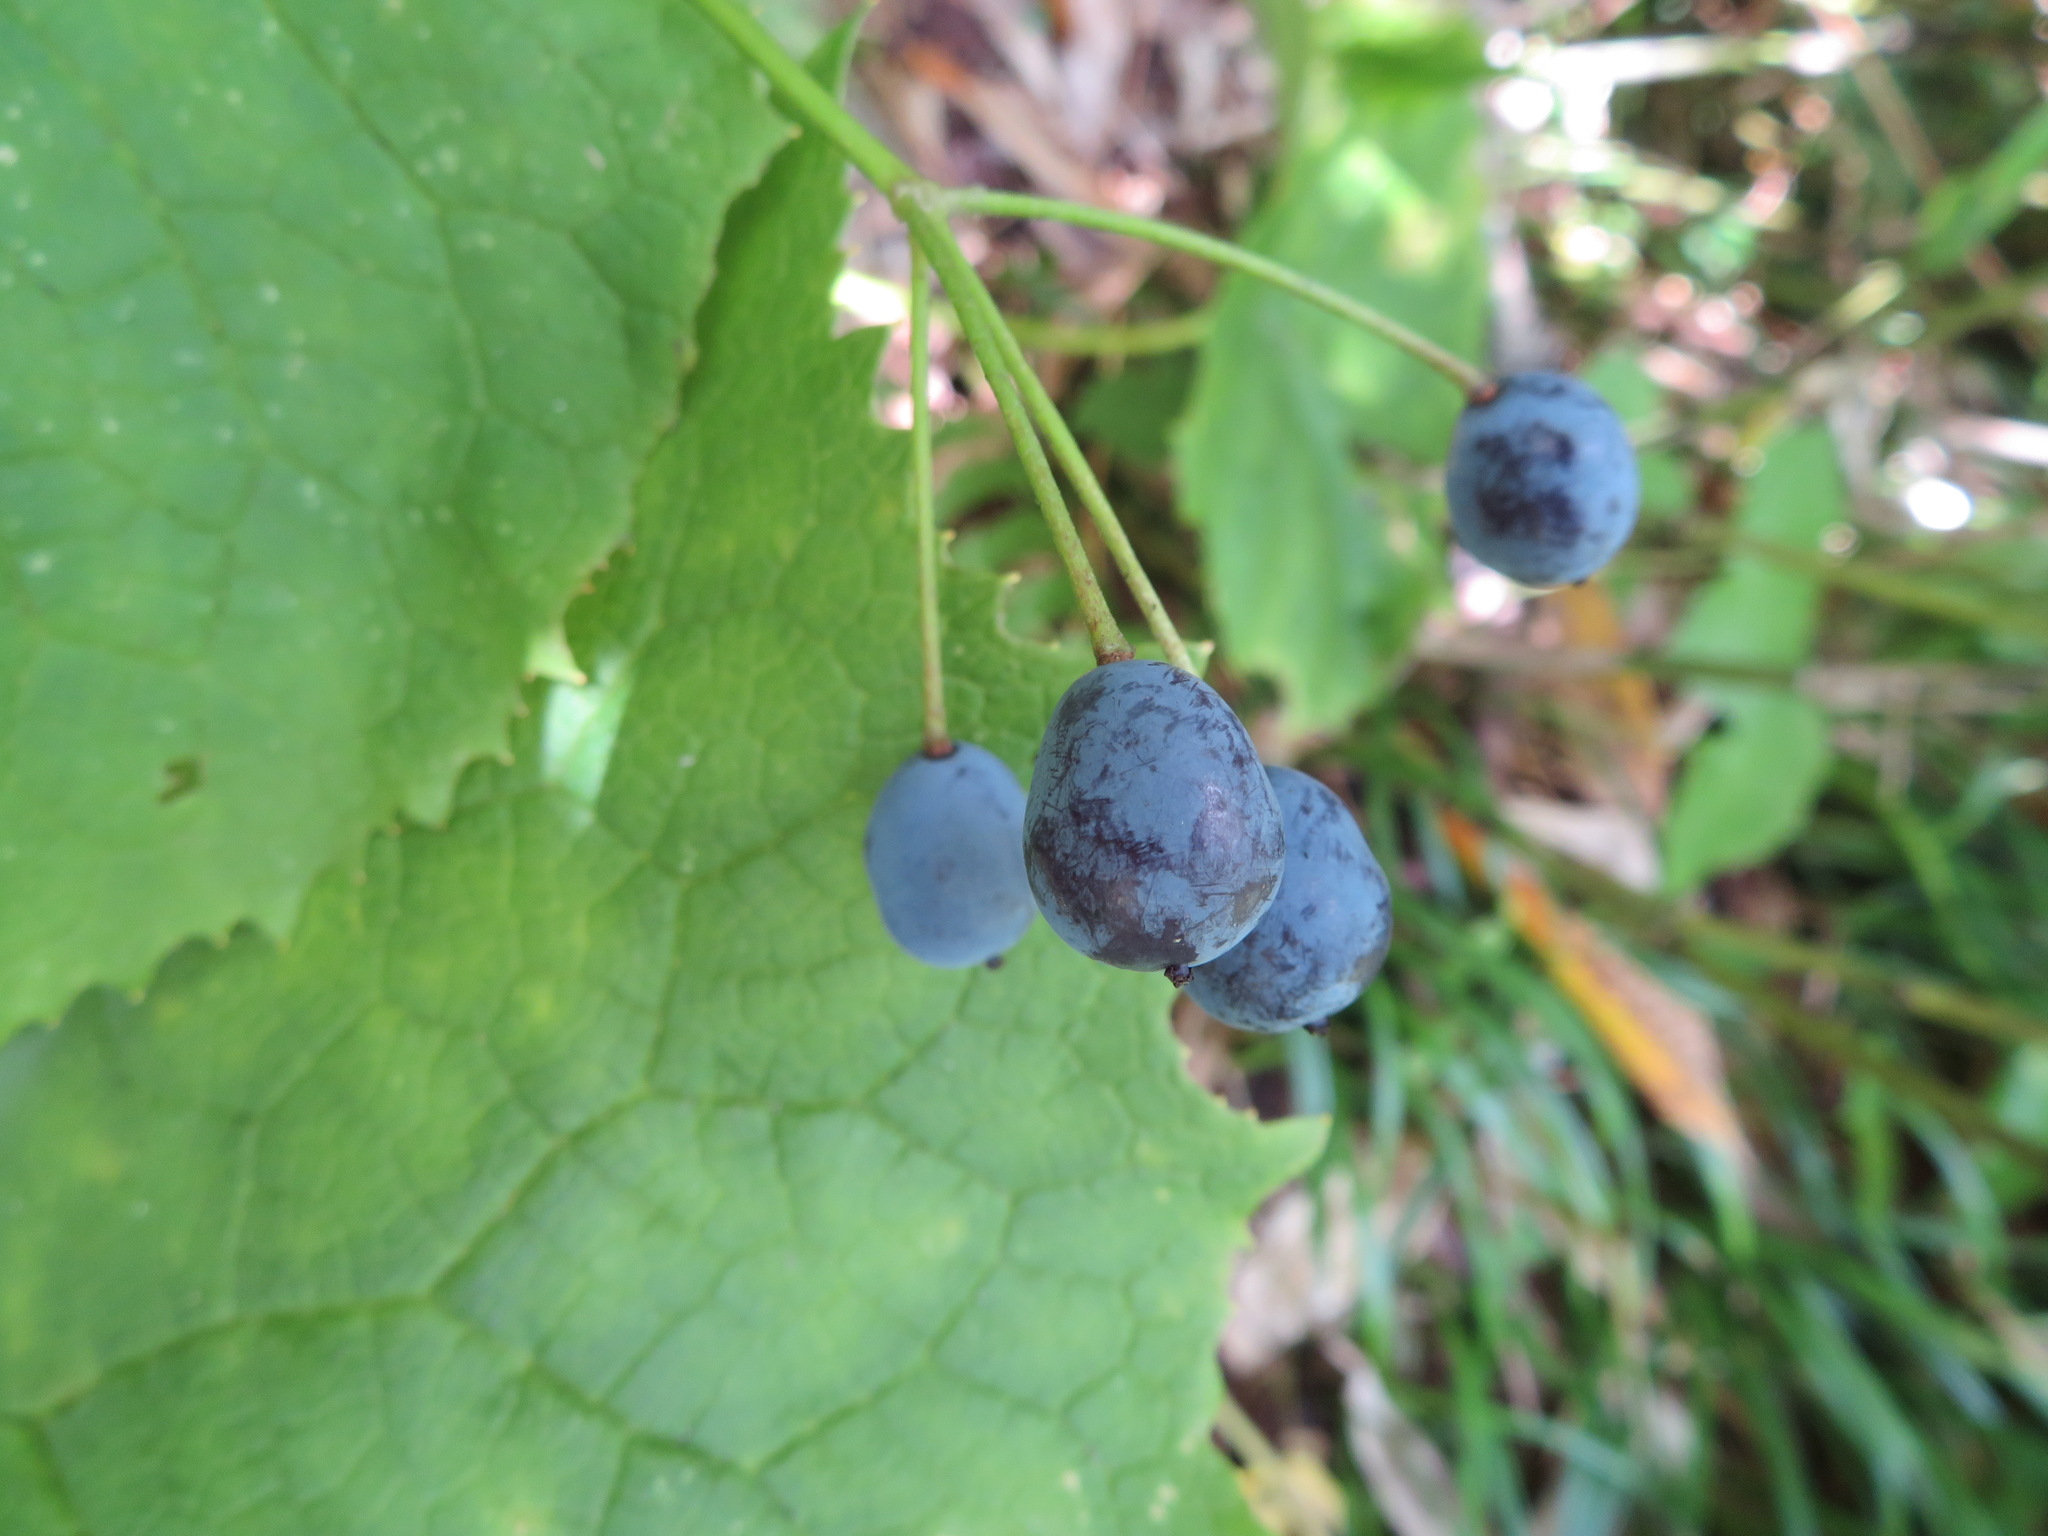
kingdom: Plantae
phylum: Tracheophyta
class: Magnoliopsida
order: Ranunculales
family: Berberidaceae
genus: Diphylleia
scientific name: Diphylleia grayi
